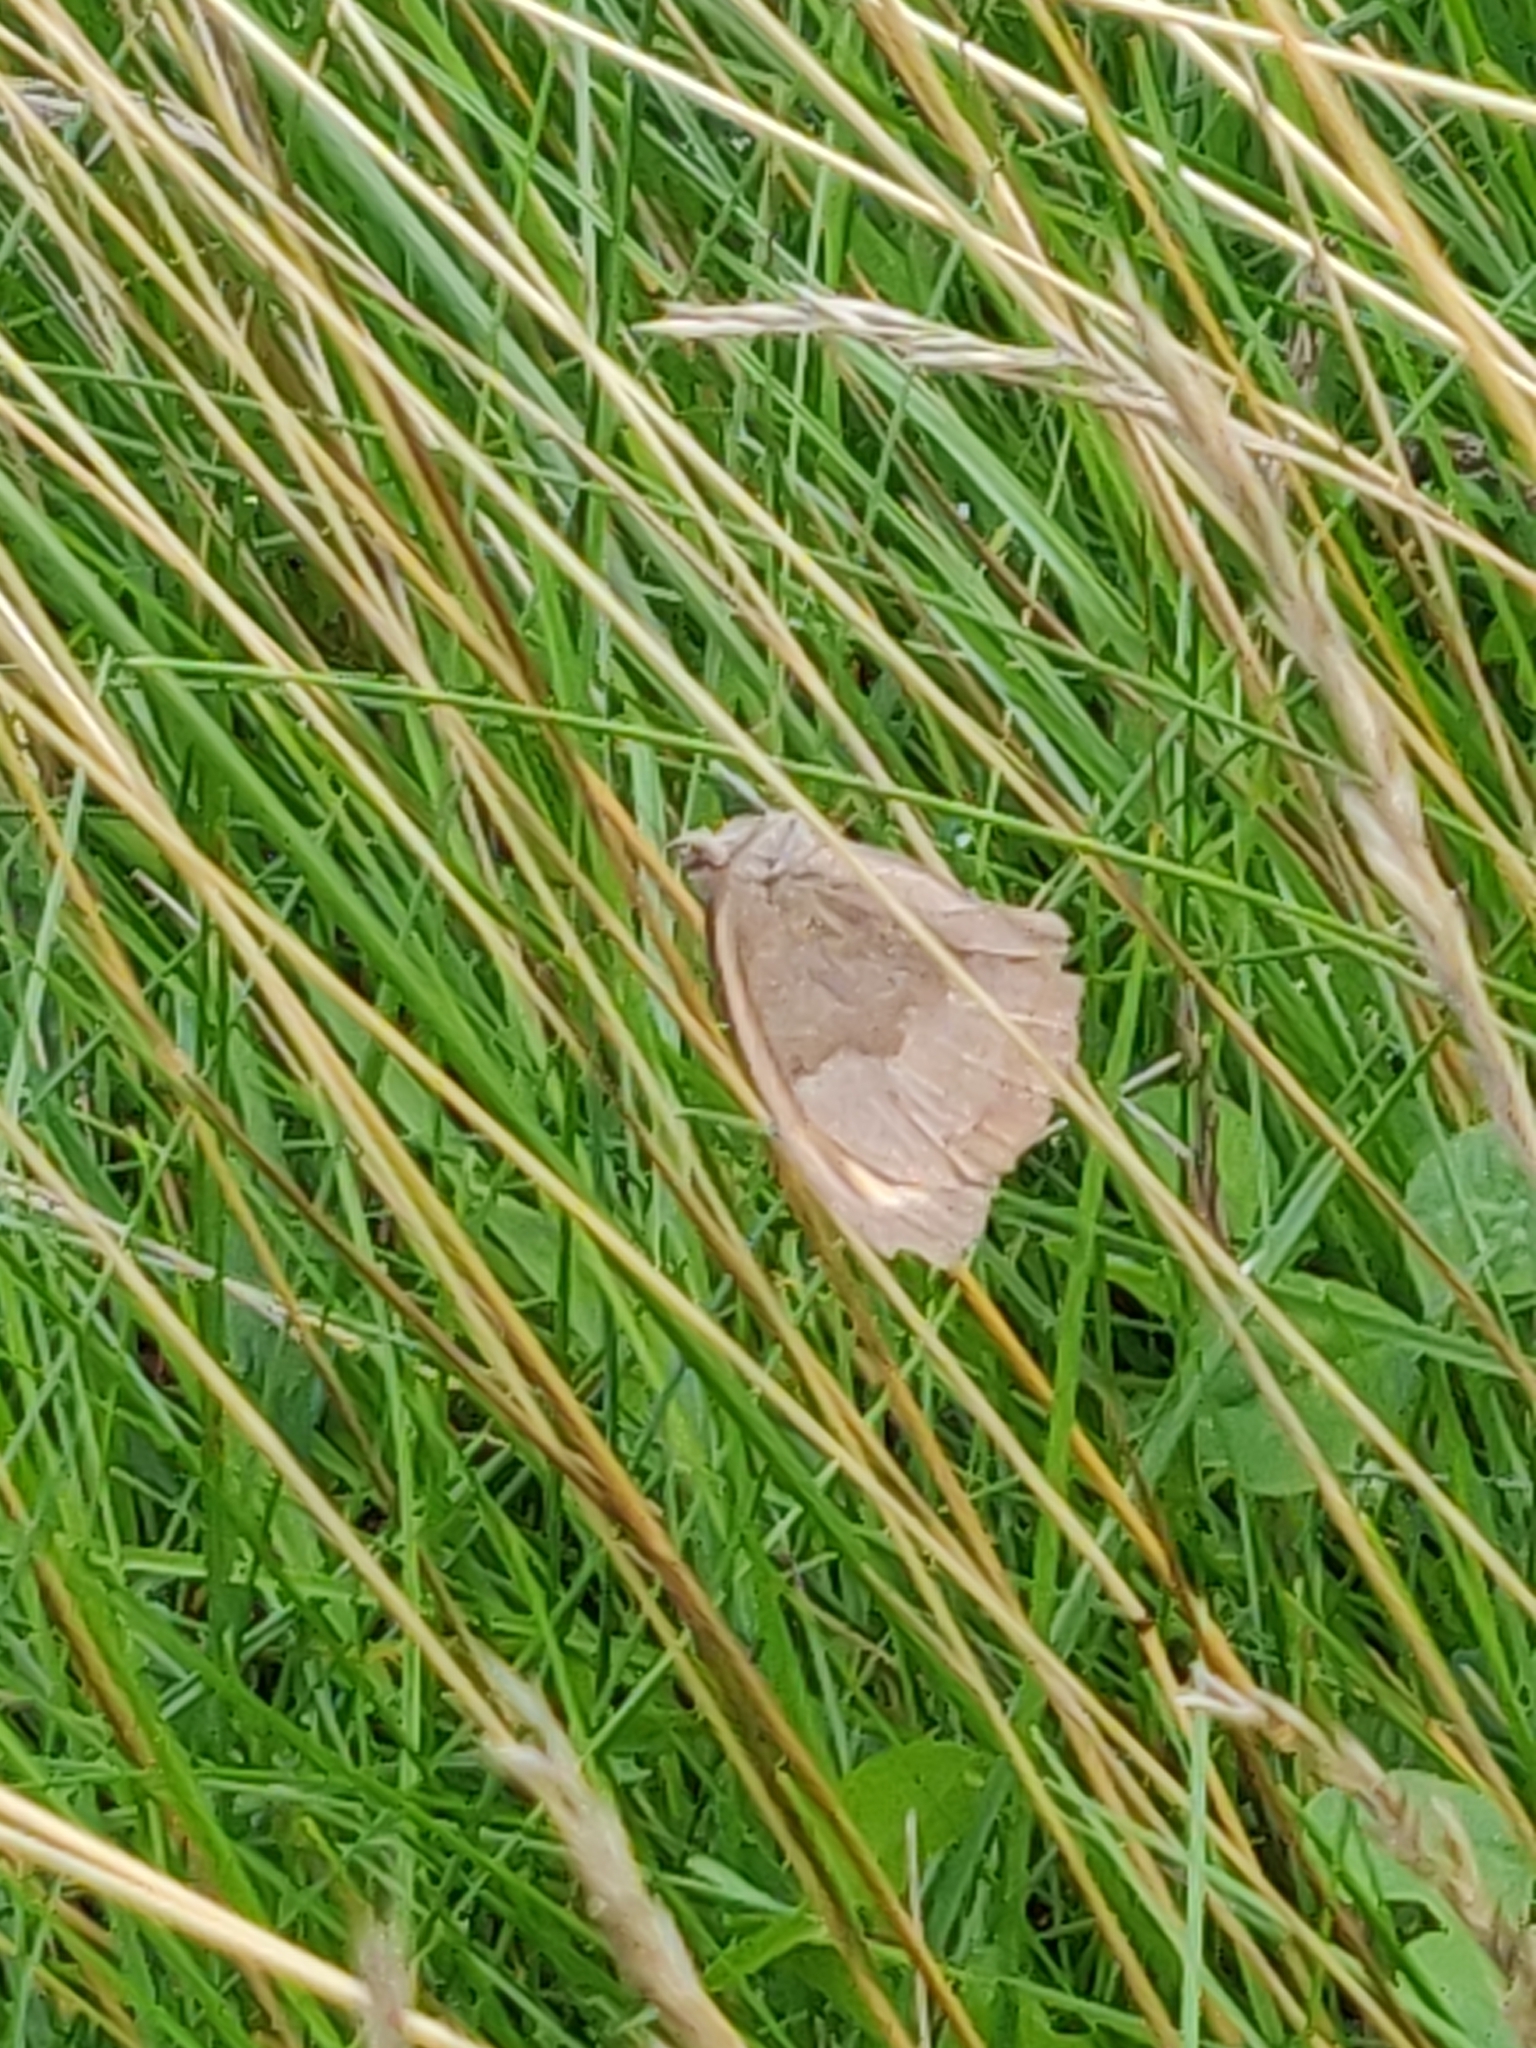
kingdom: Animalia
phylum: Arthropoda
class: Insecta
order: Lepidoptera
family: Nymphalidae
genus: Maniola
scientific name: Maniola jurtina
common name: Meadow brown
